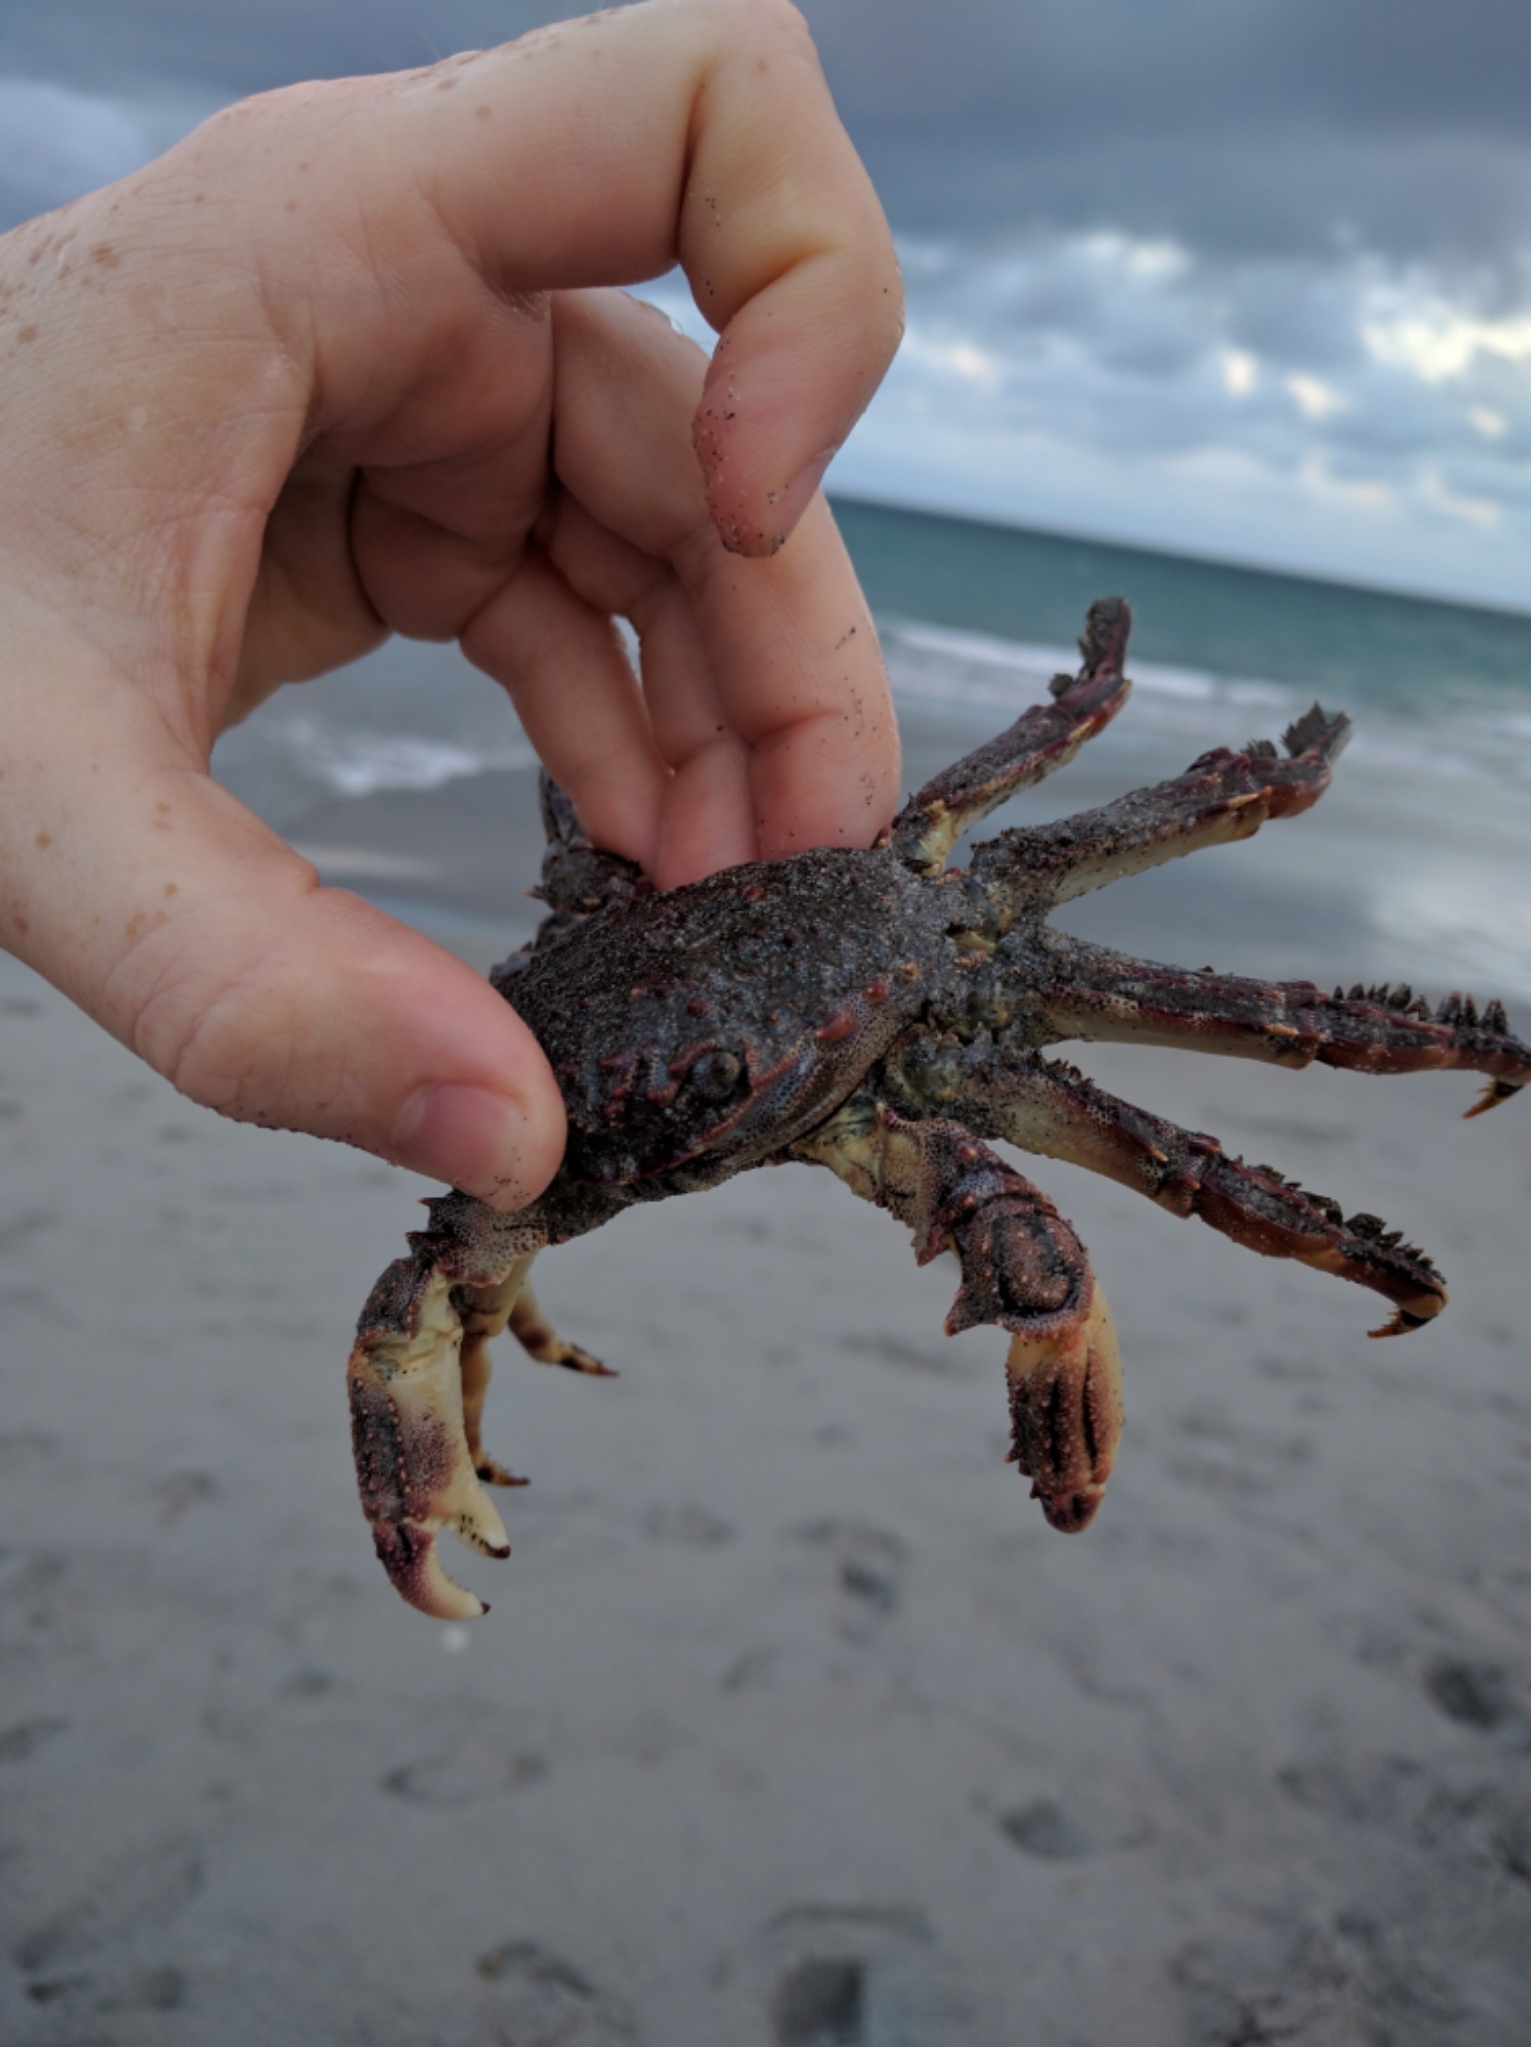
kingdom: Animalia
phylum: Arthropoda
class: Malacostraca
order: Decapoda
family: Plagusiidae
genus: Plagusia
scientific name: Plagusia depressa
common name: Flattened crab
